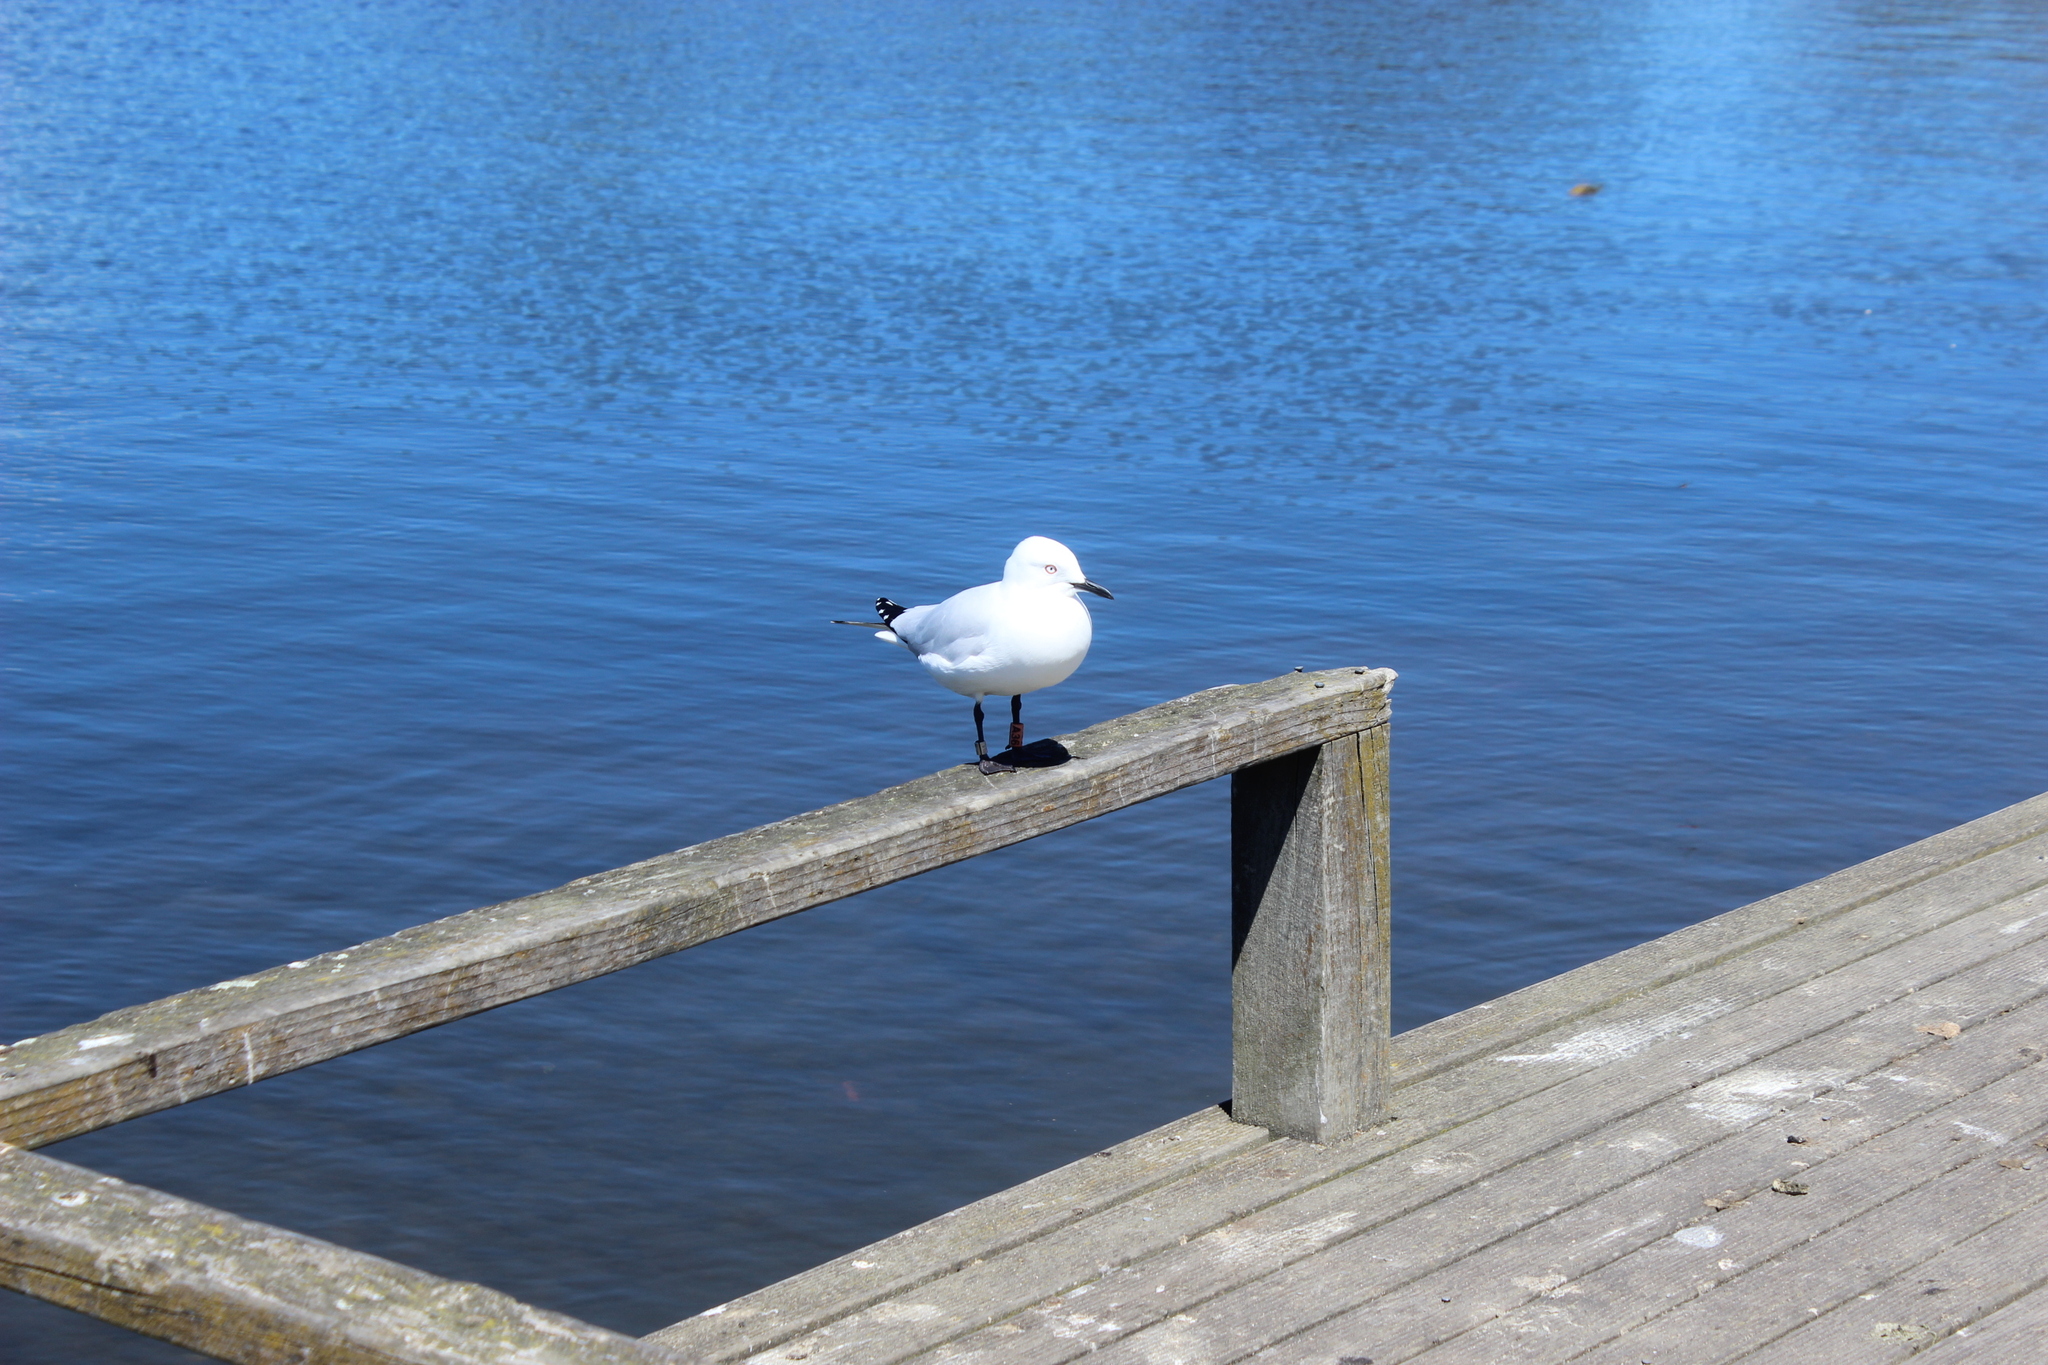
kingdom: Animalia
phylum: Chordata
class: Aves
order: Charadriiformes
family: Laridae
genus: Chroicocephalus
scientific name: Chroicocephalus bulleri
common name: Black-billed gull
